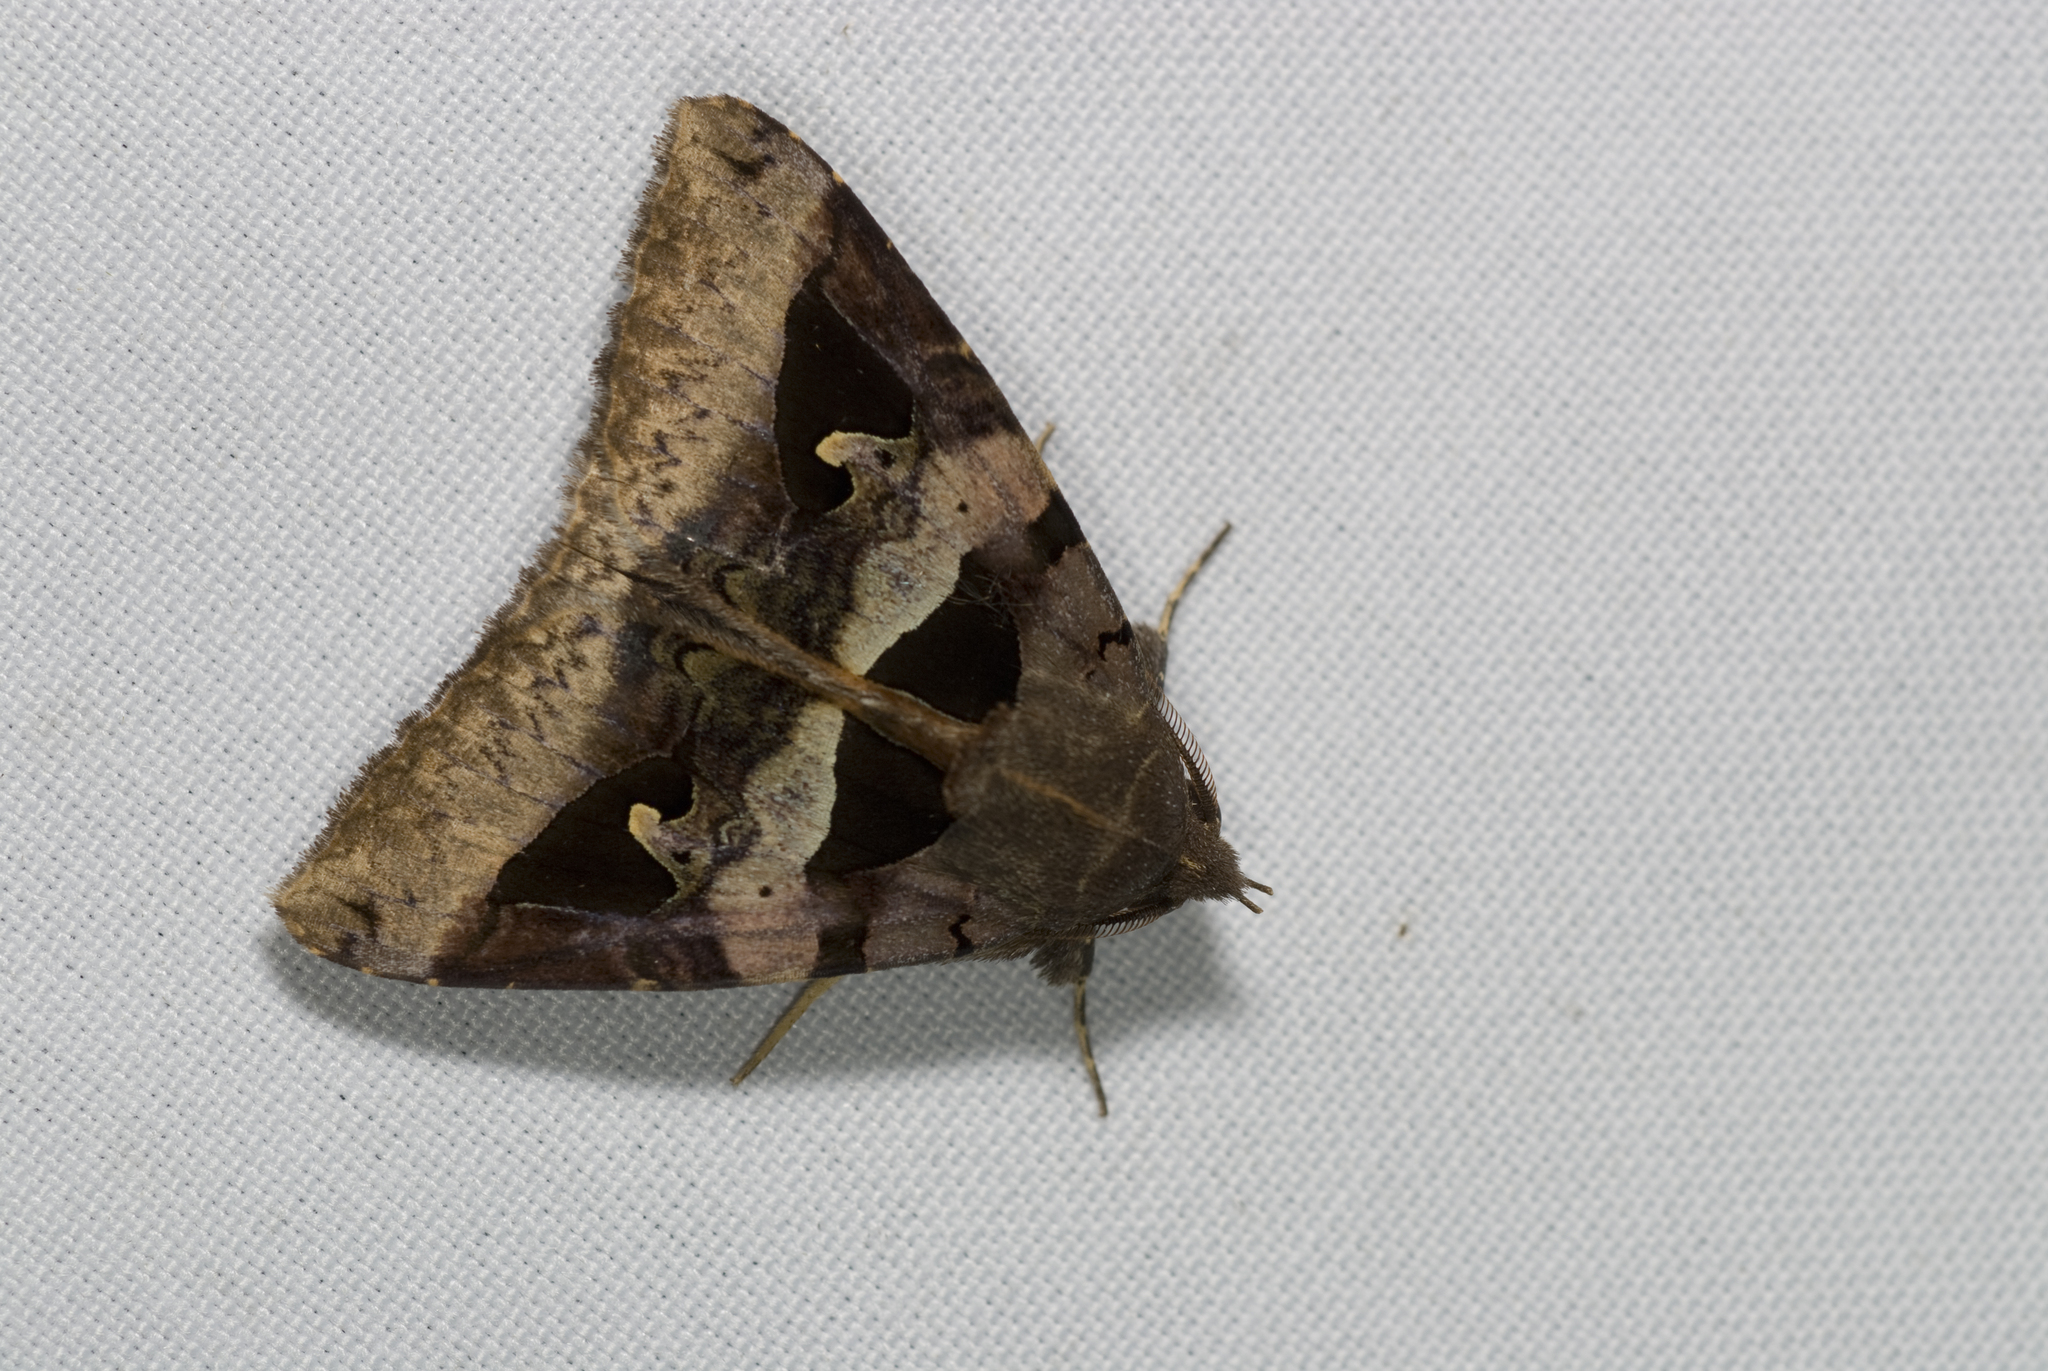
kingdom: Animalia
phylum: Arthropoda
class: Insecta
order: Lepidoptera
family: Erebidae
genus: Avatha
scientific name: Avatha chinensis
